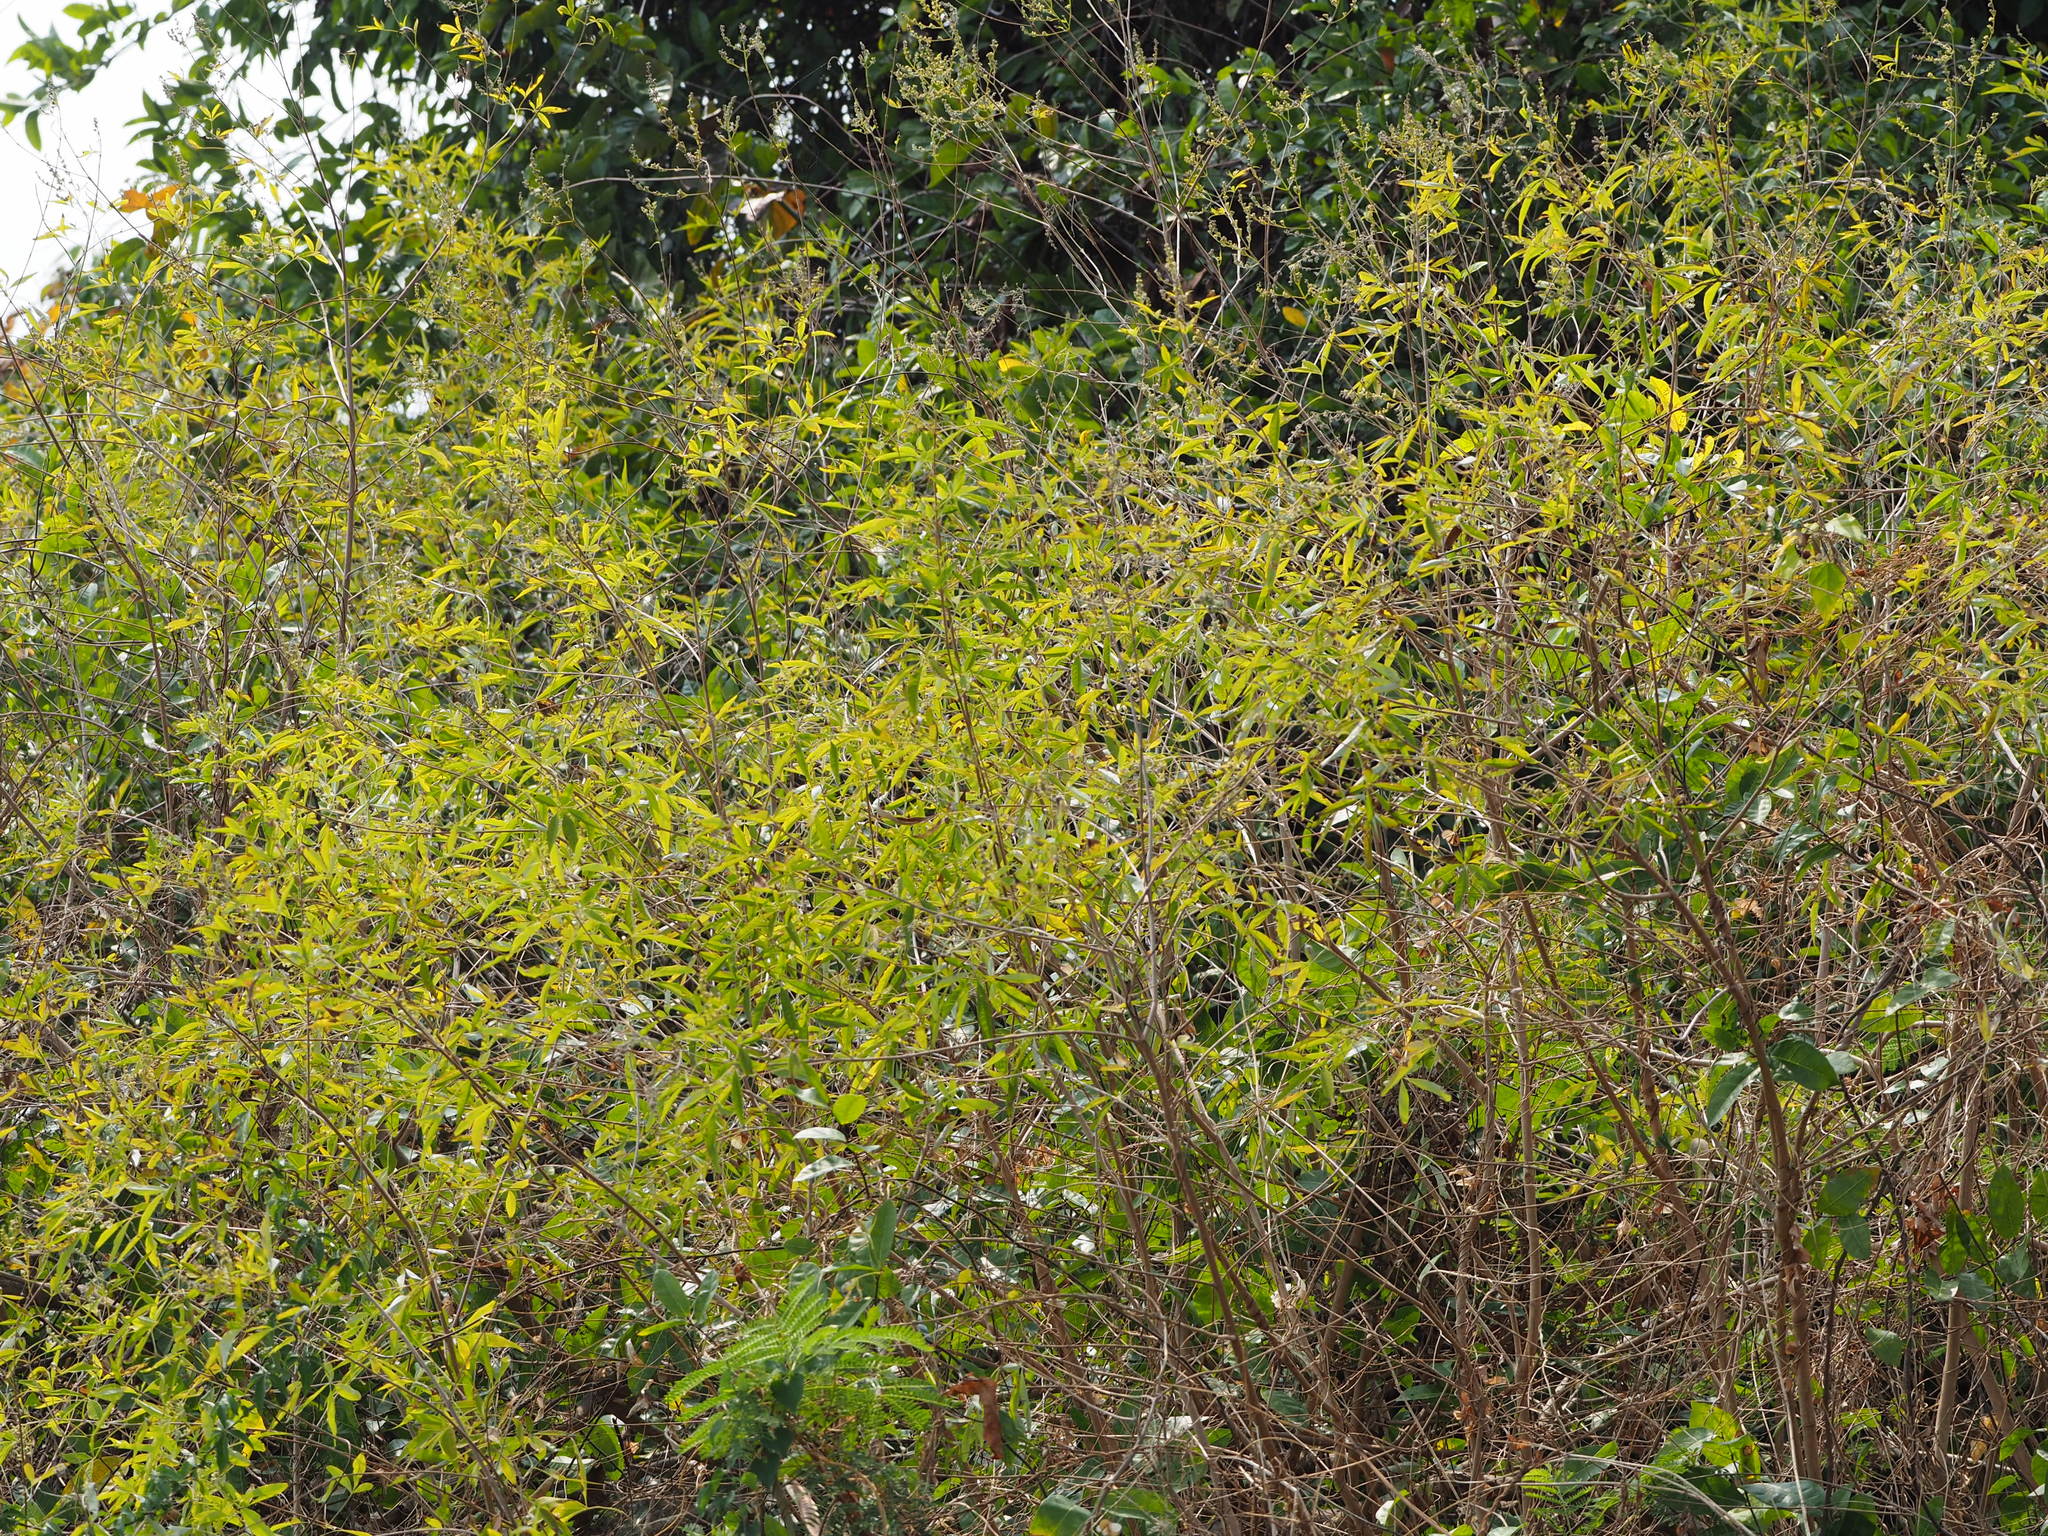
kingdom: Plantae
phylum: Tracheophyta
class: Magnoliopsida
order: Lamiales
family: Lamiaceae
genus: Vitex
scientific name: Vitex negundo
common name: Chinese chastetree
